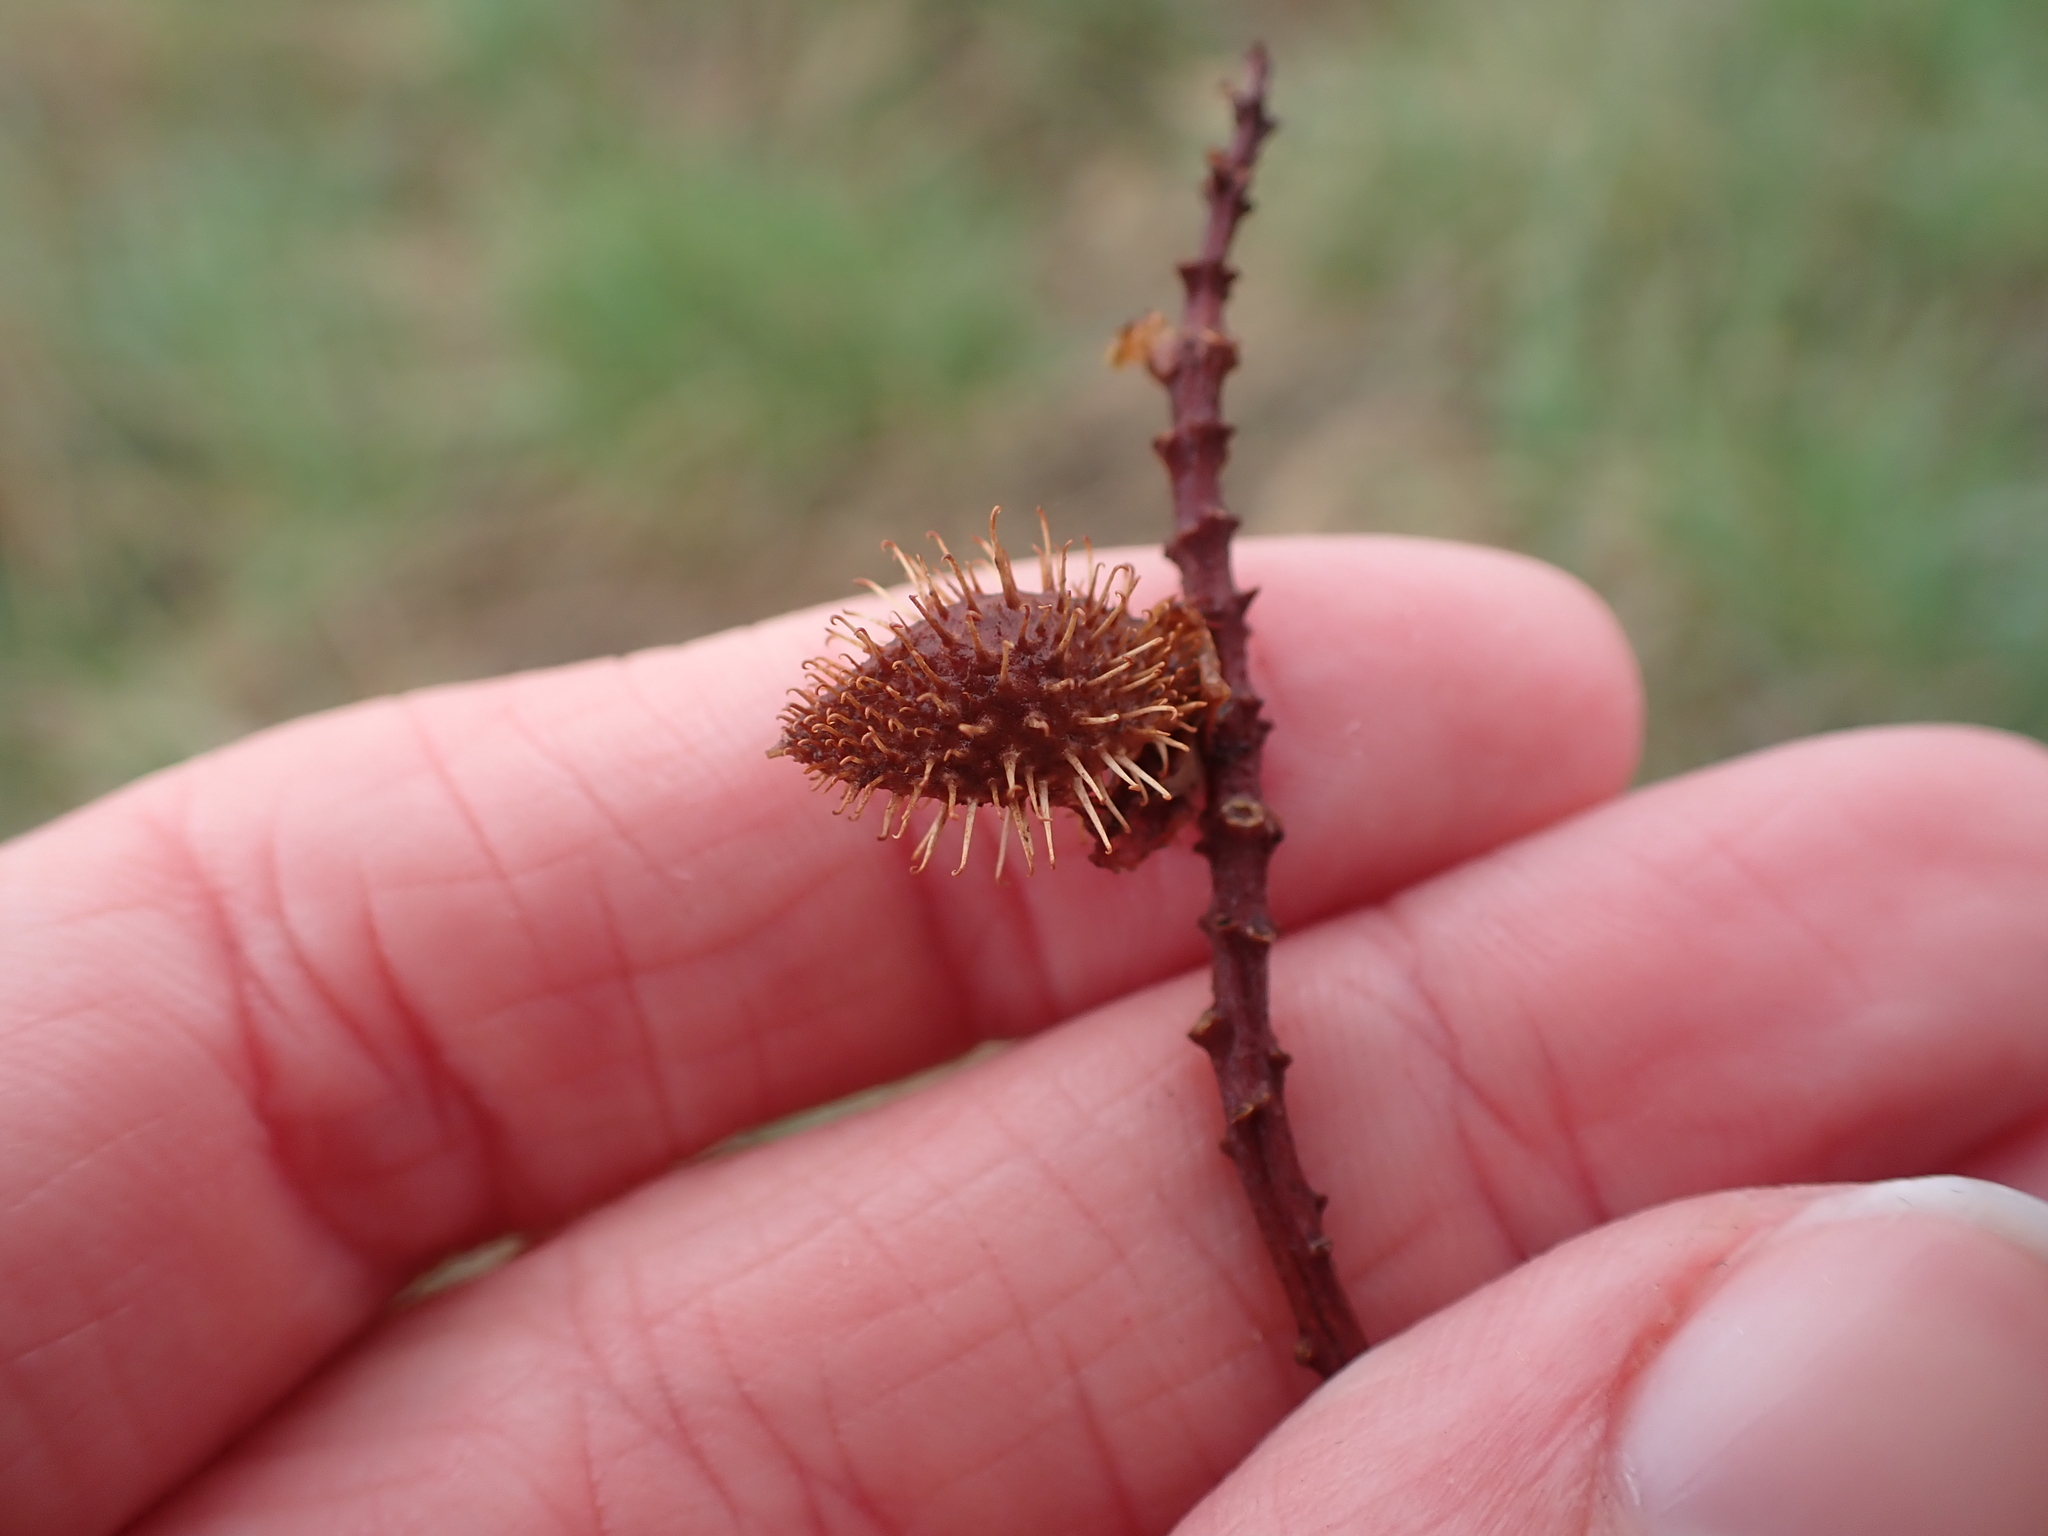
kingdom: Plantae
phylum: Tracheophyta
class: Magnoliopsida
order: Fabales
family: Fabaceae
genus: Glycyrrhiza
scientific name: Glycyrrhiza lepidota
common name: American liquorice
